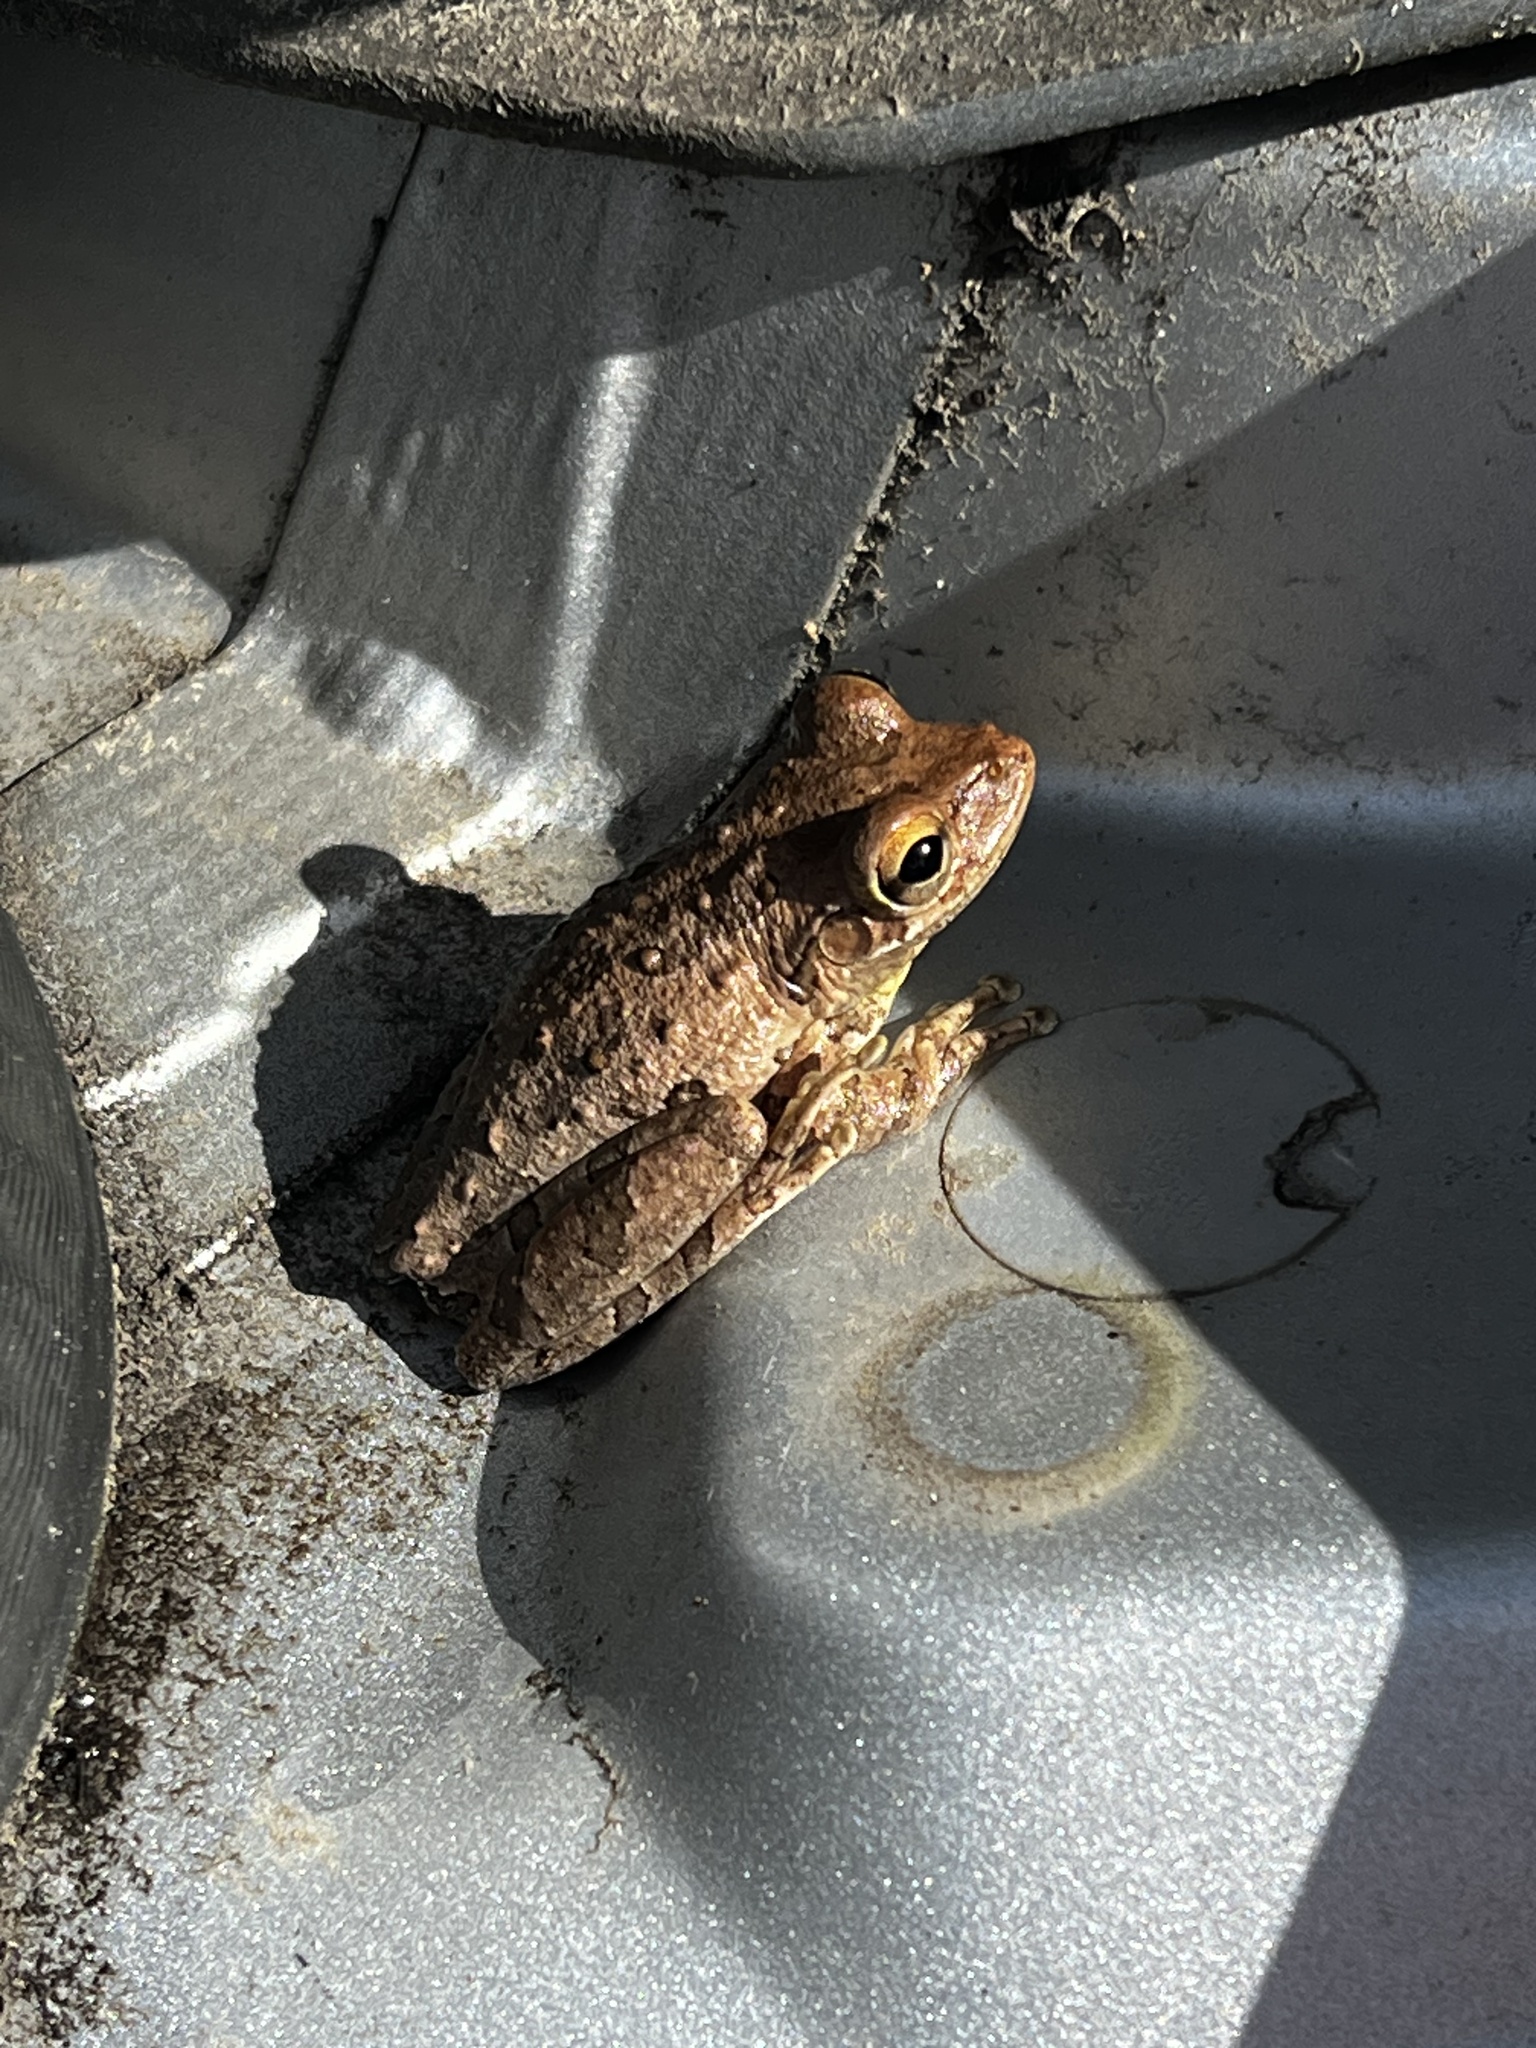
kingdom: Animalia
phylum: Chordata
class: Amphibia
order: Anura
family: Hylidae
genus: Osteopilus
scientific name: Osteopilus septentrionalis
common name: Cuban treefrog
